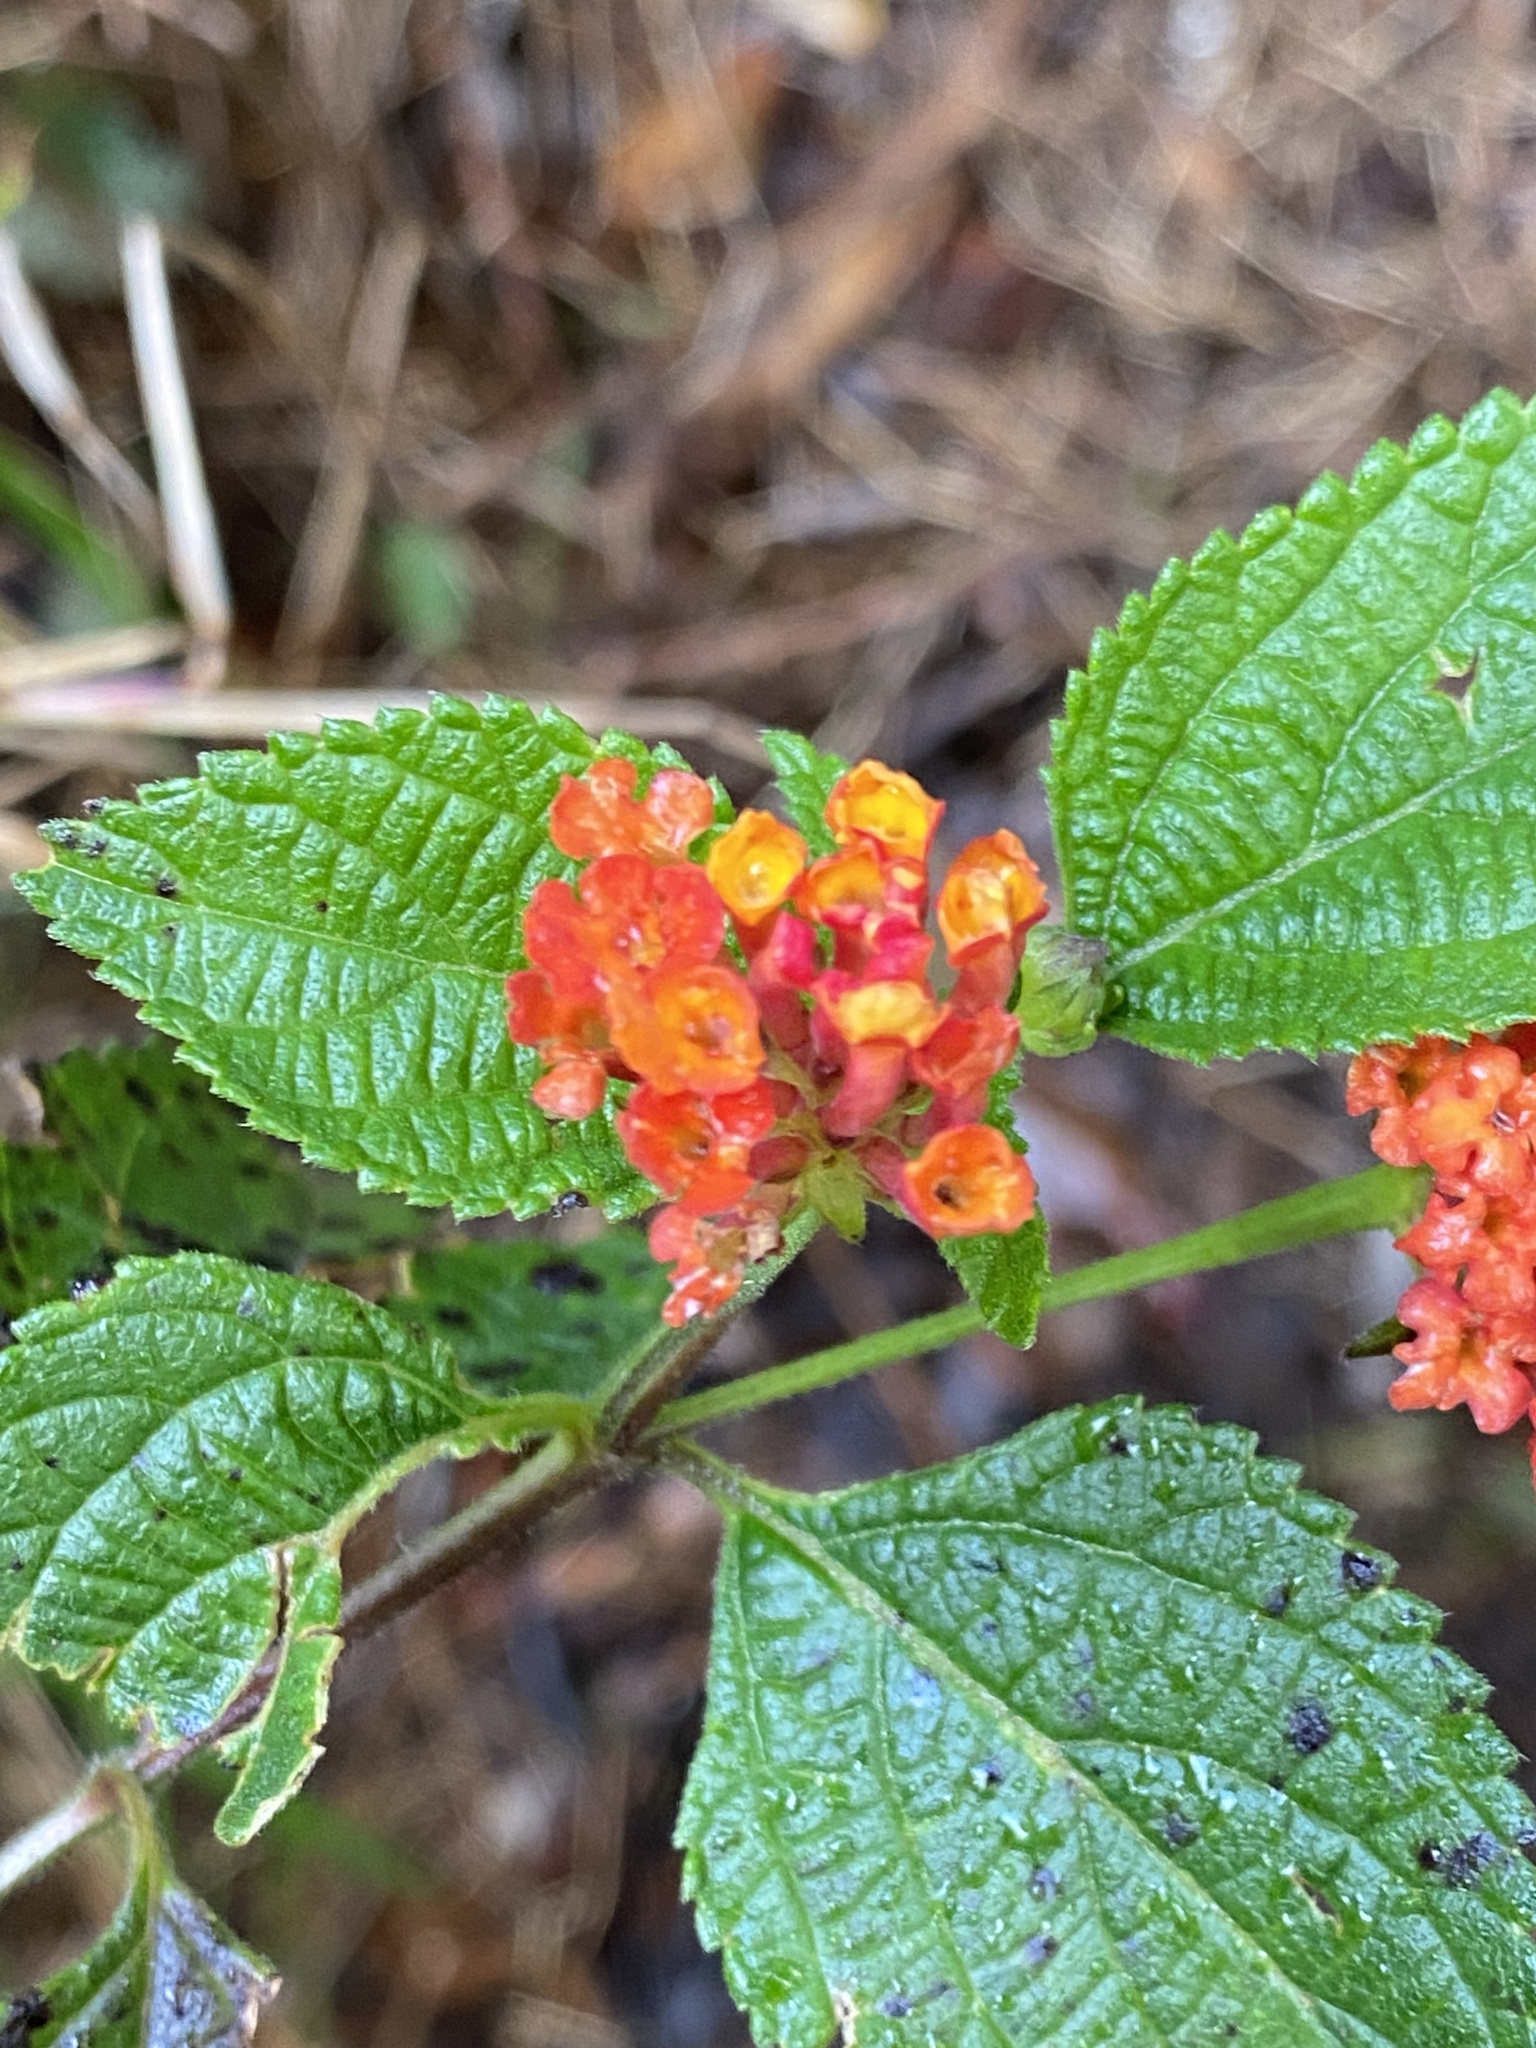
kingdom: Plantae
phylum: Tracheophyta
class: Magnoliopsida
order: Lamiales
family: Verbenaceae
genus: Lantana
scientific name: Lantana camara
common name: Lantana
